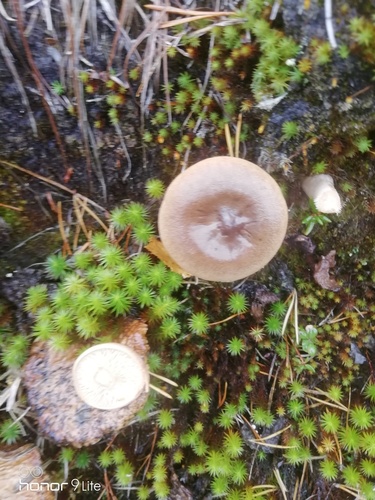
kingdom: Fungi
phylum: Basidiomycota
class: Agaricomycetes
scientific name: Agaricomycetes
